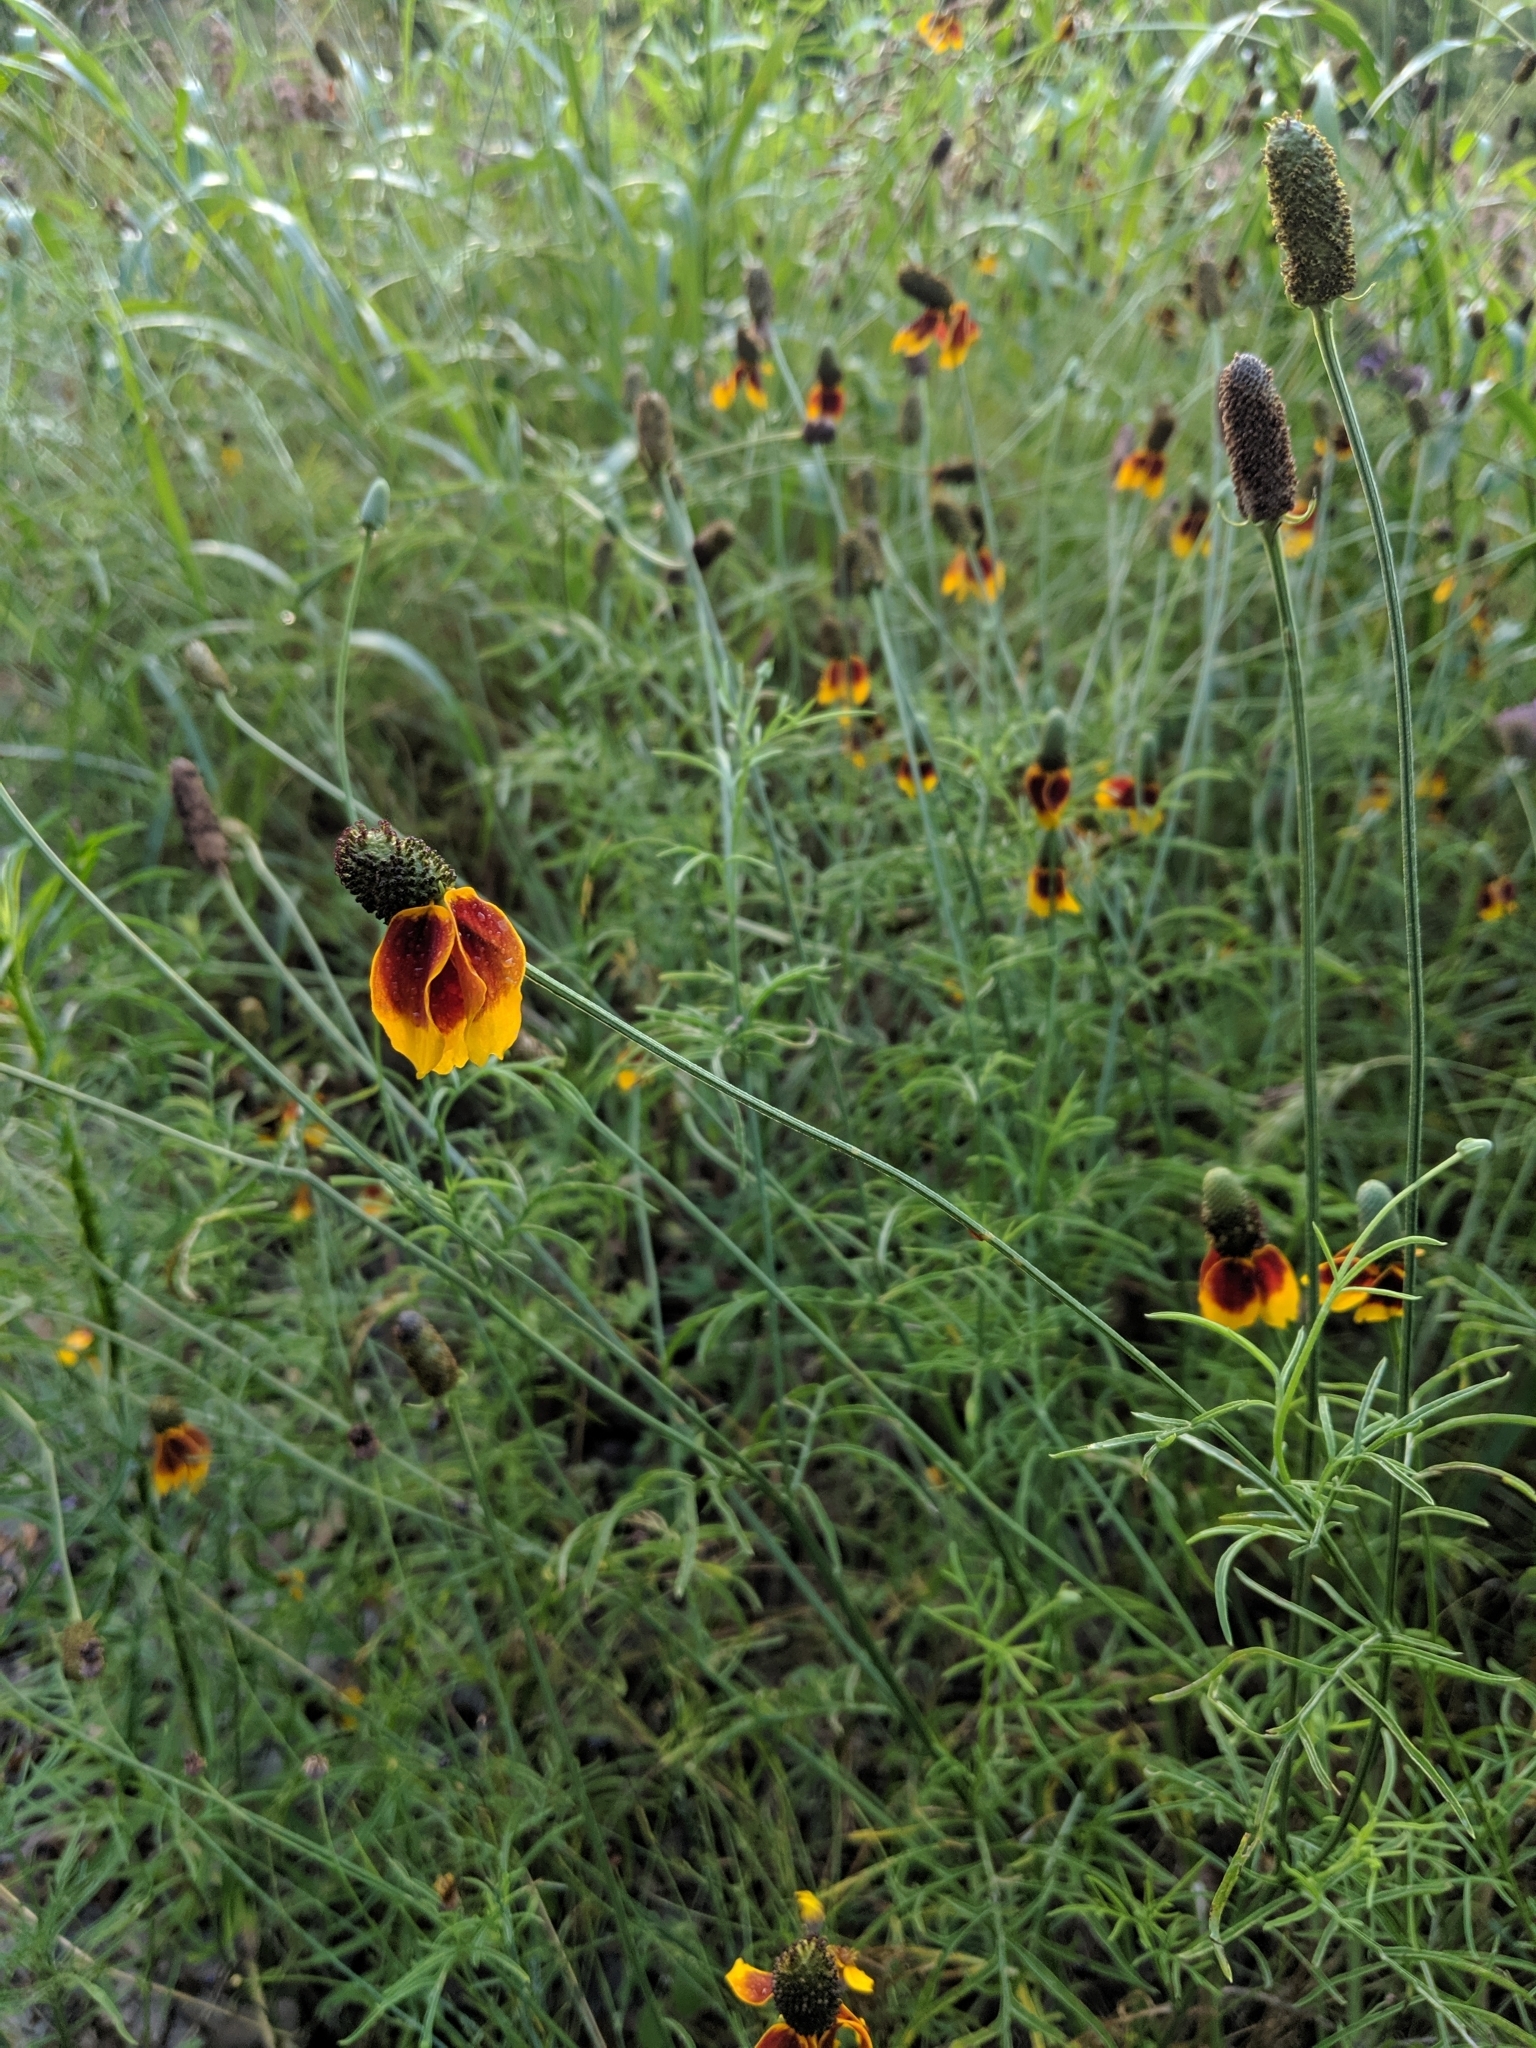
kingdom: Plantae
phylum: Tracheophyta
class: Magnoliopsida
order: Asterales
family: Asteraceae
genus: Ratibida
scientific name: Ratibida columnifera
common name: Prairie coneflower
